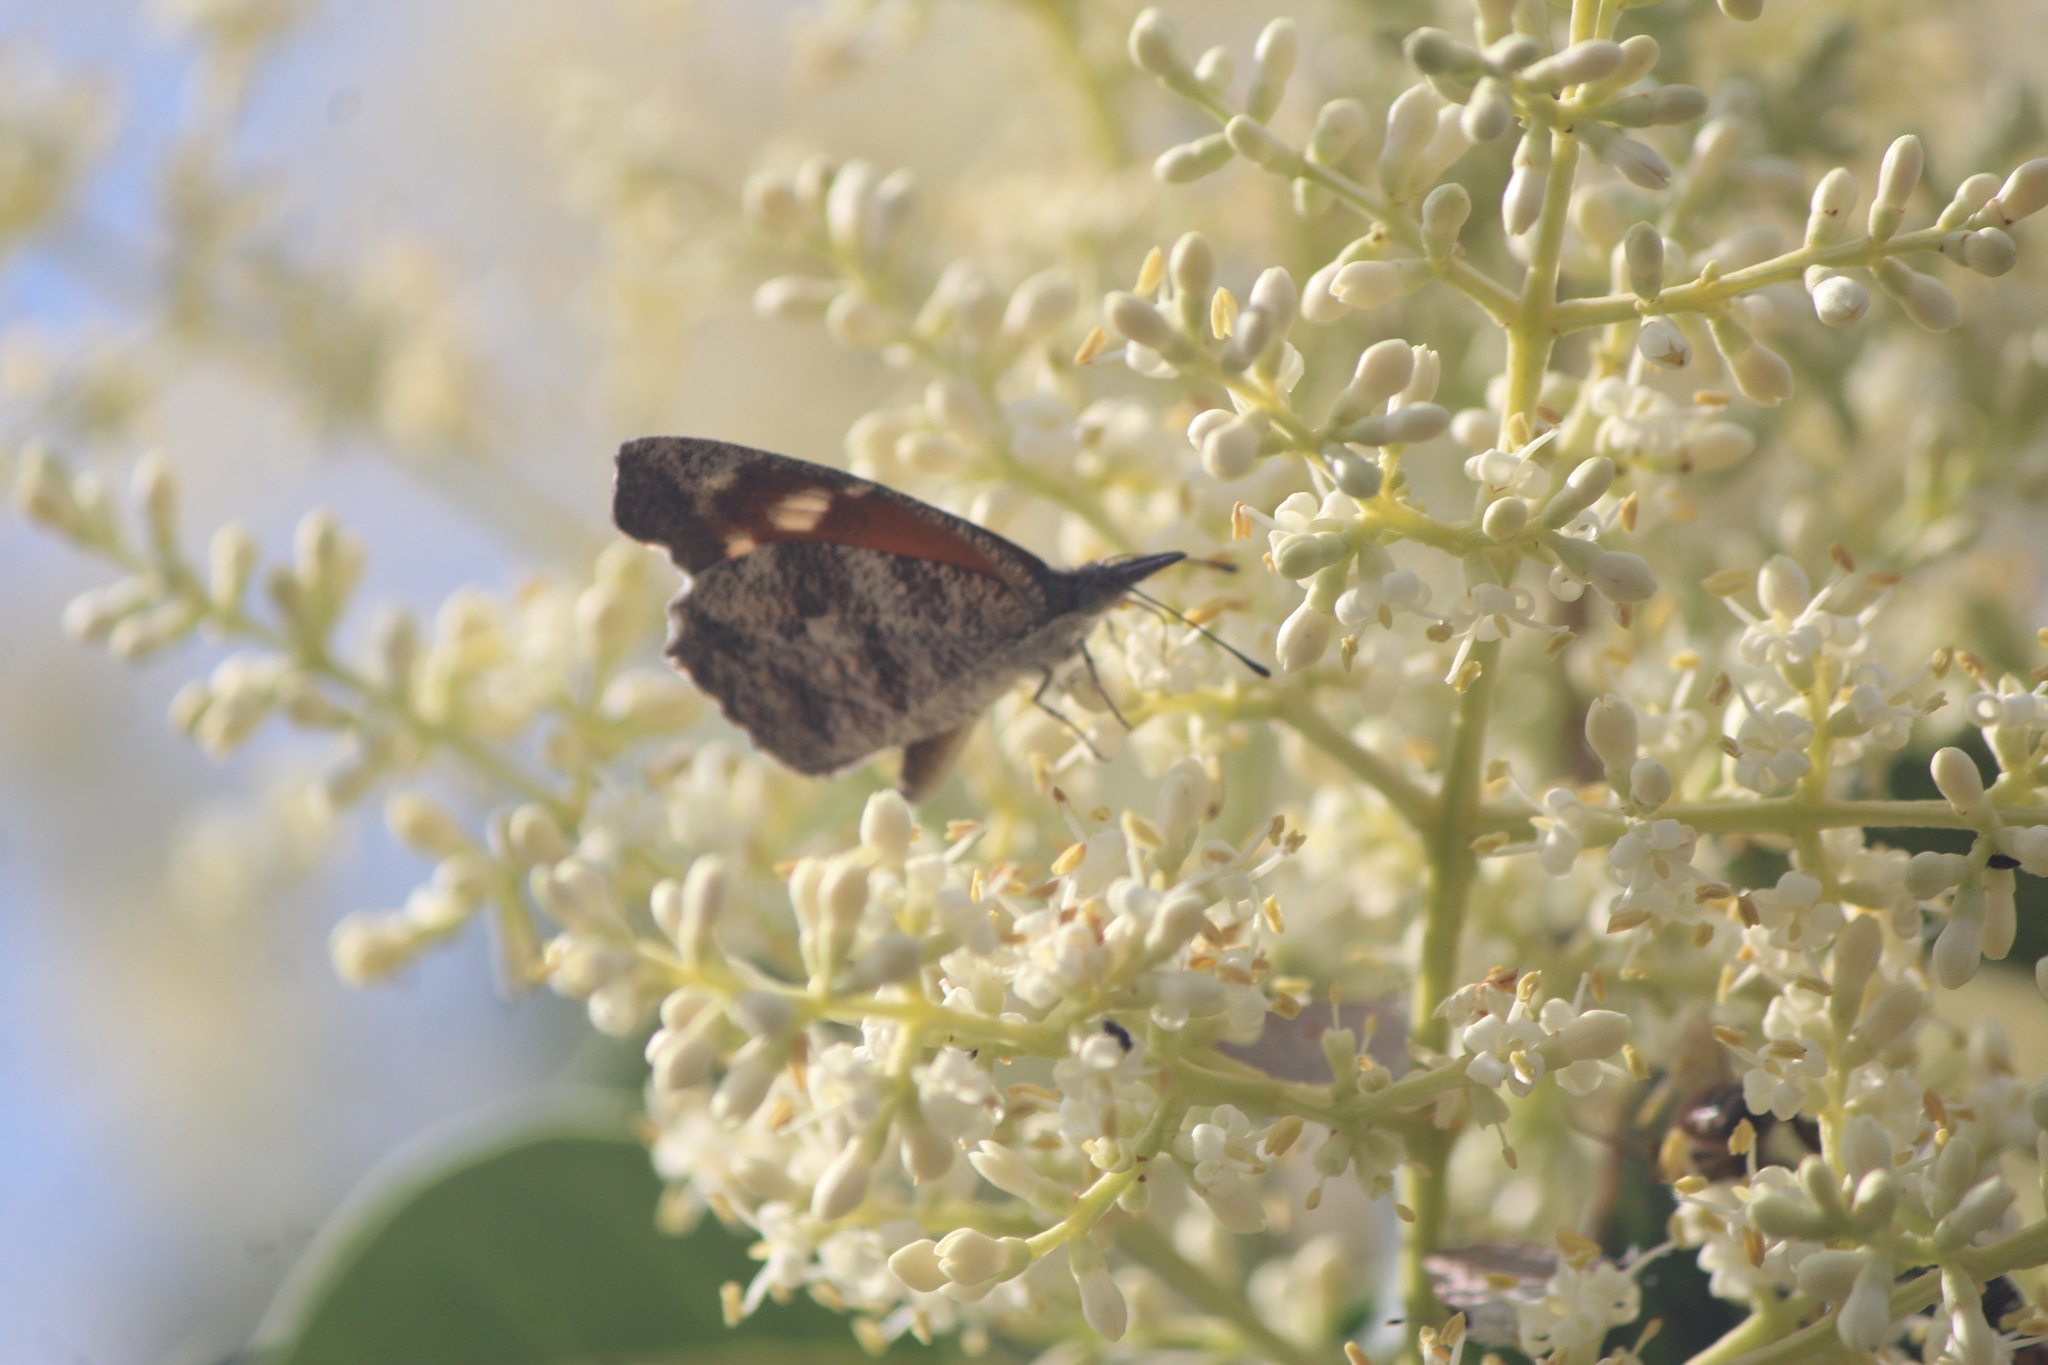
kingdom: Animalia
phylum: Arthropoda
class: Insecta
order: Lepidoptera
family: Nymphalidae
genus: Libytheana
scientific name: Libytheana carinenta
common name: American snout
